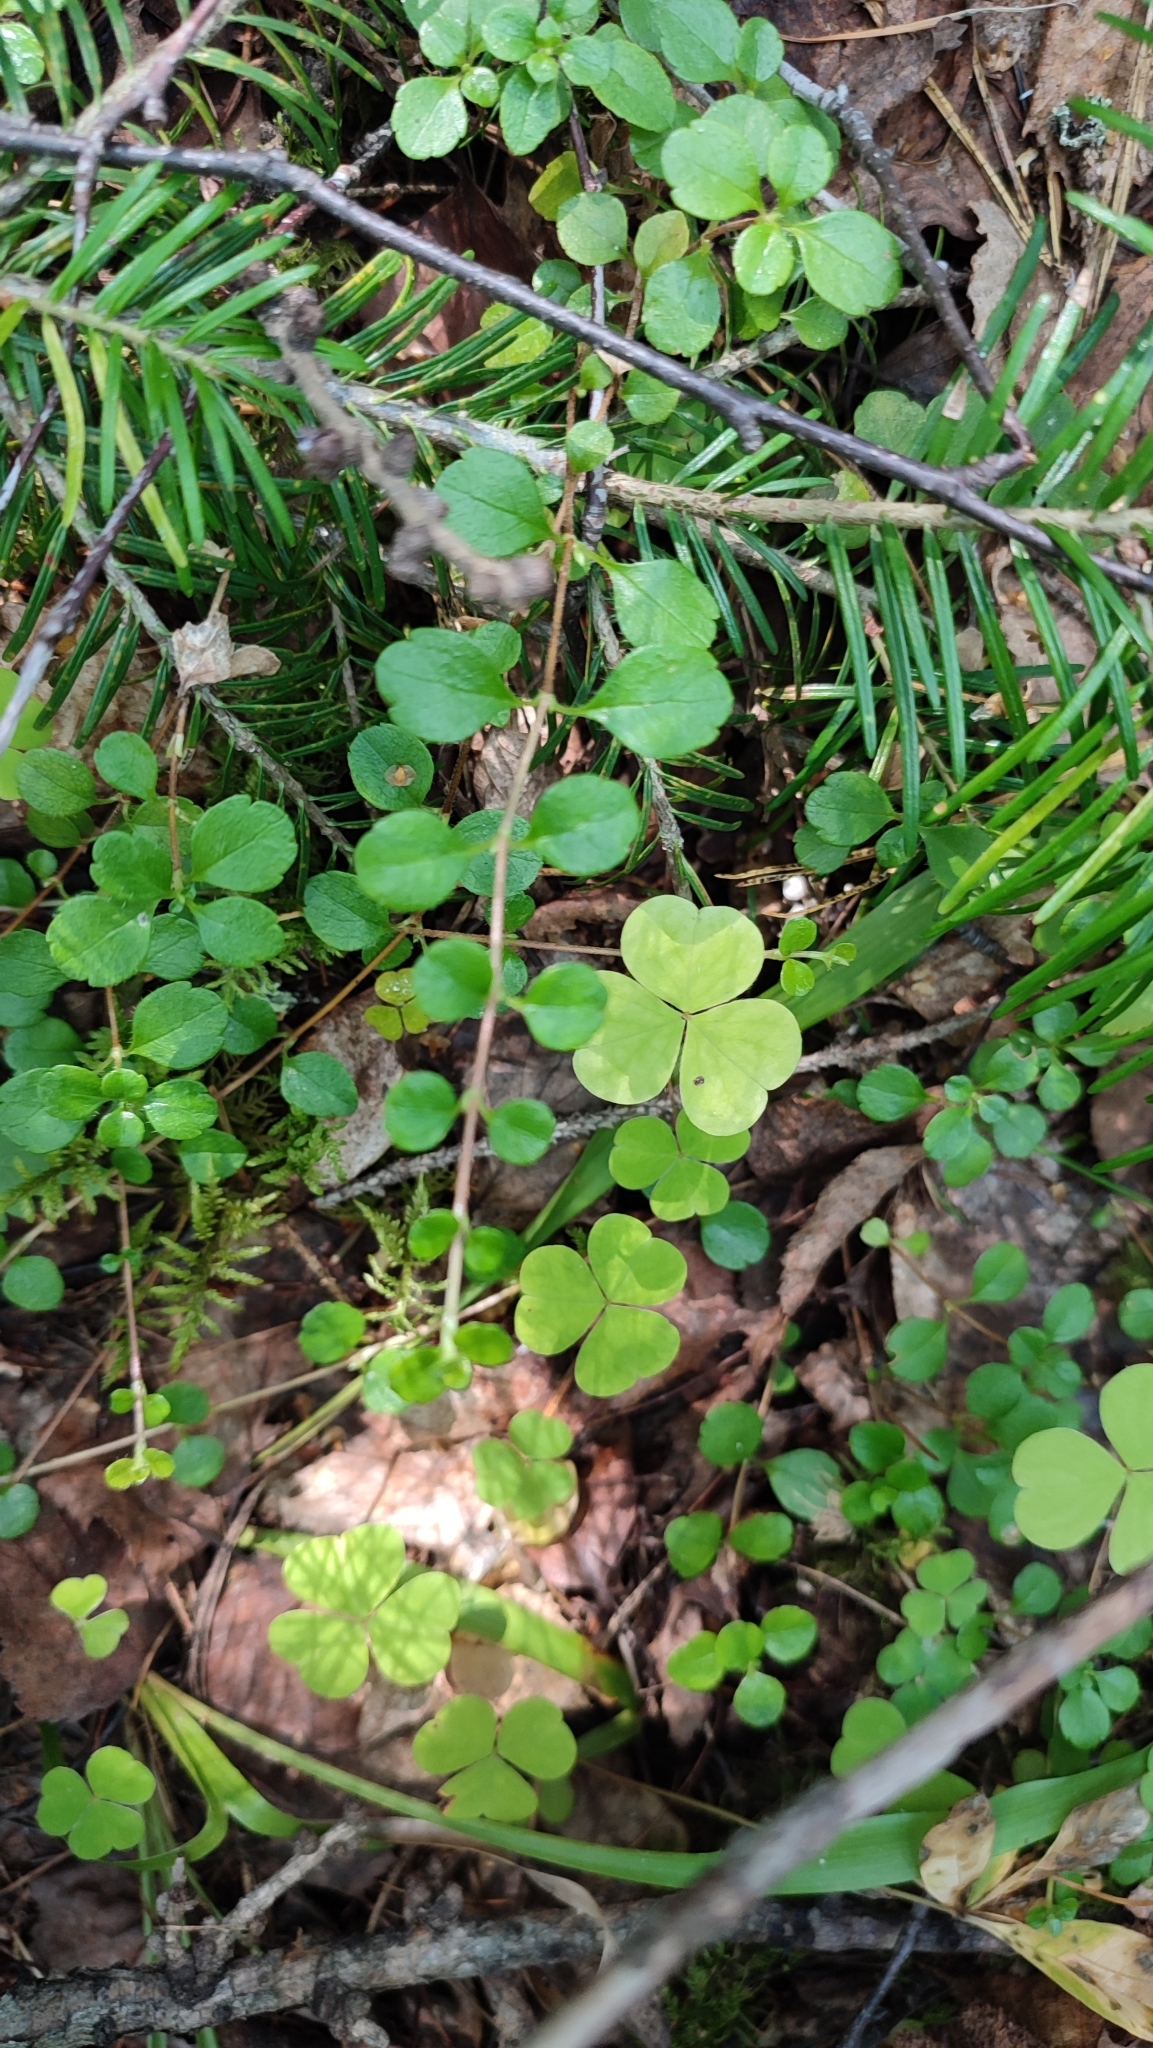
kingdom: Plantae
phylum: Tracheophyta
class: Magnoliopsida
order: Dipsacales
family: Caprifoliaceae
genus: Linnaea
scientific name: Linnaea borealis
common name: Twinflower
